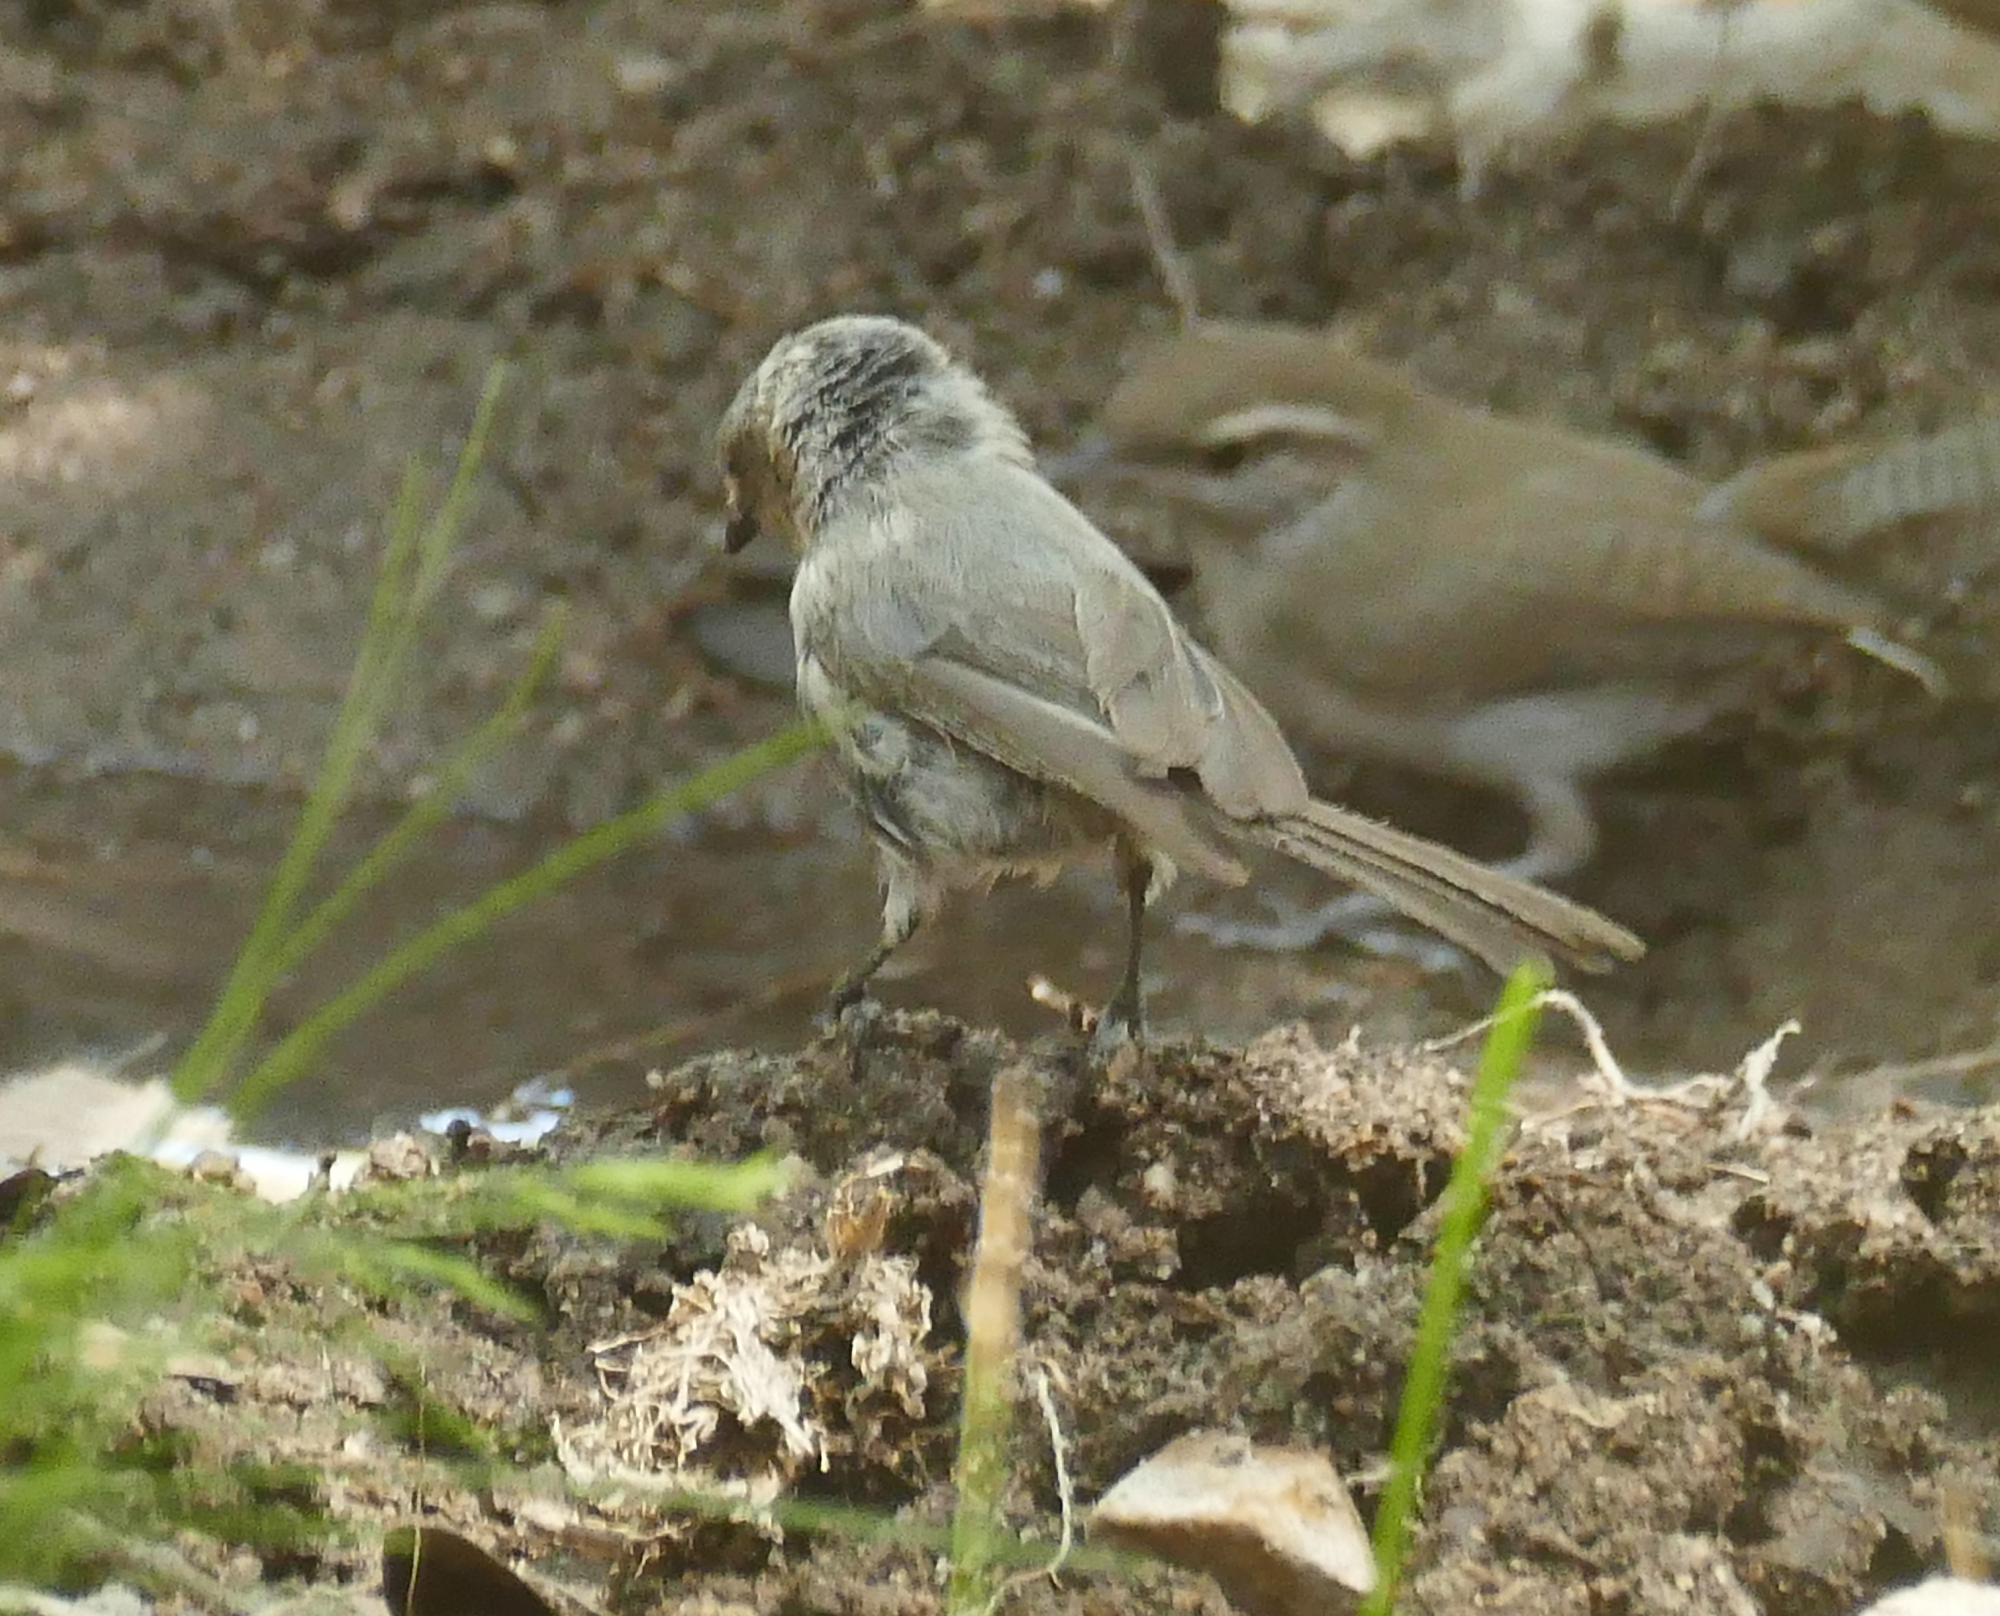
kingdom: Animalia
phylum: Chordata
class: Aves
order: Passeriformes
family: Aegithalidae
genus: Psaltriparus
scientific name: Psaltriparus minimus
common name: American bushtit
